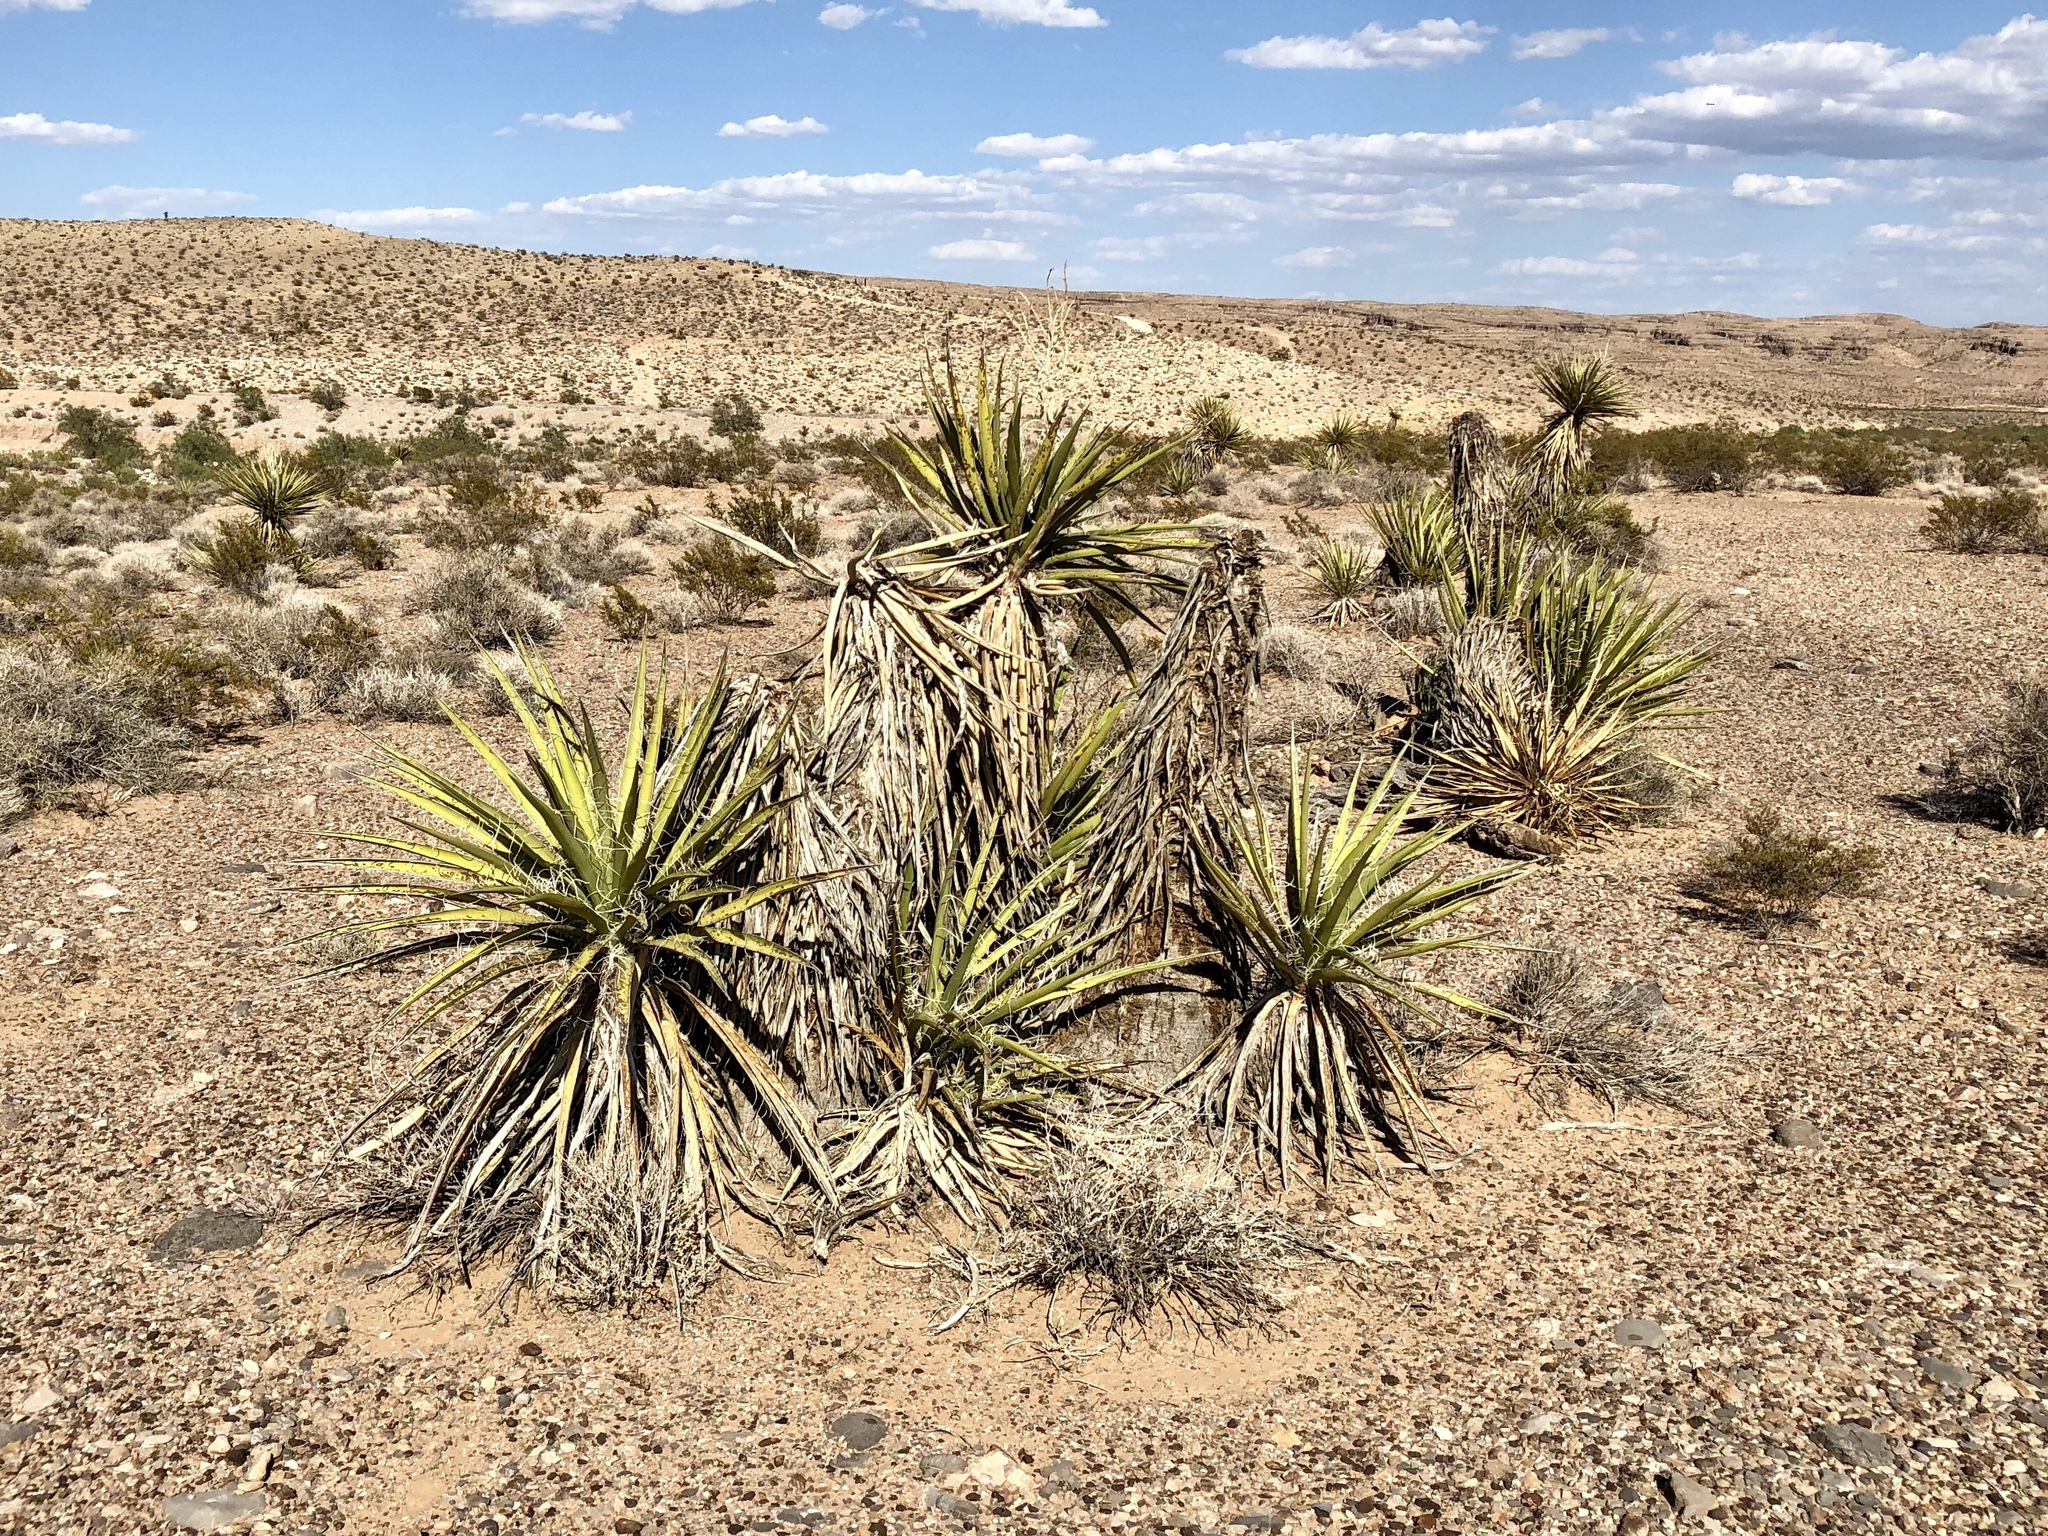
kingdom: Plantae
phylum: Tracheophyta
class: Liliopsida
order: Asparagales
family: Asparagaceae
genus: Yucca
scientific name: Yucca schidigera
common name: Mojave yucca
